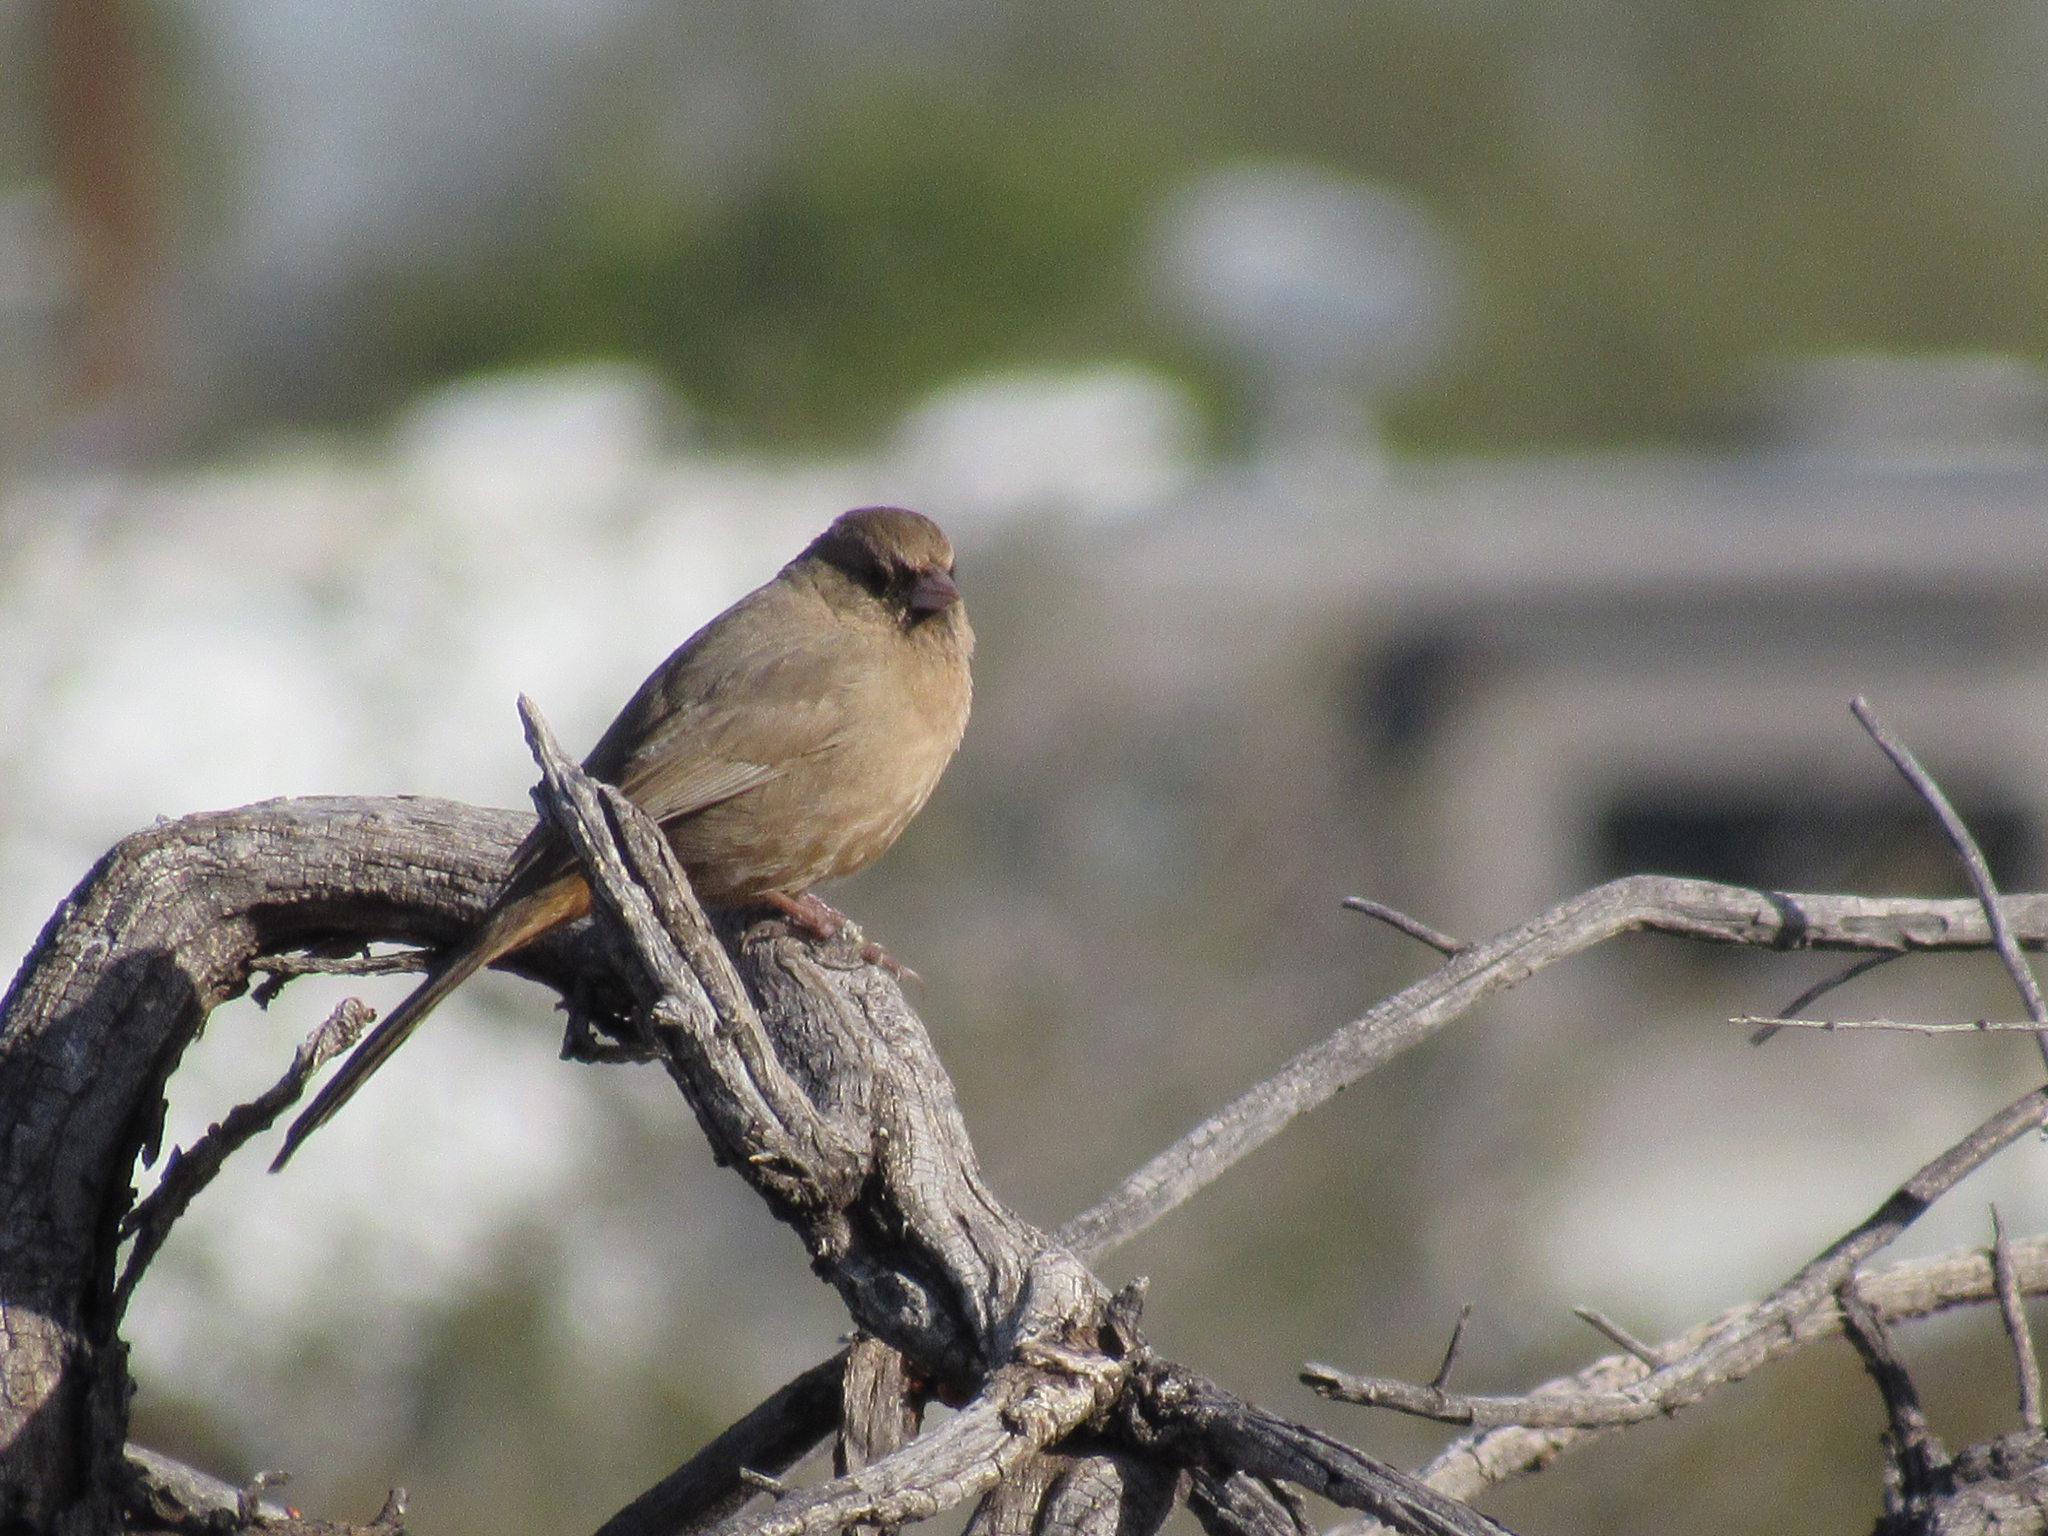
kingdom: Animalia
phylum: Chordata
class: Aves
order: Passeriformes
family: Passerellidae
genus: Melozone
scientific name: Melozone aberti
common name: Abert's towhee
